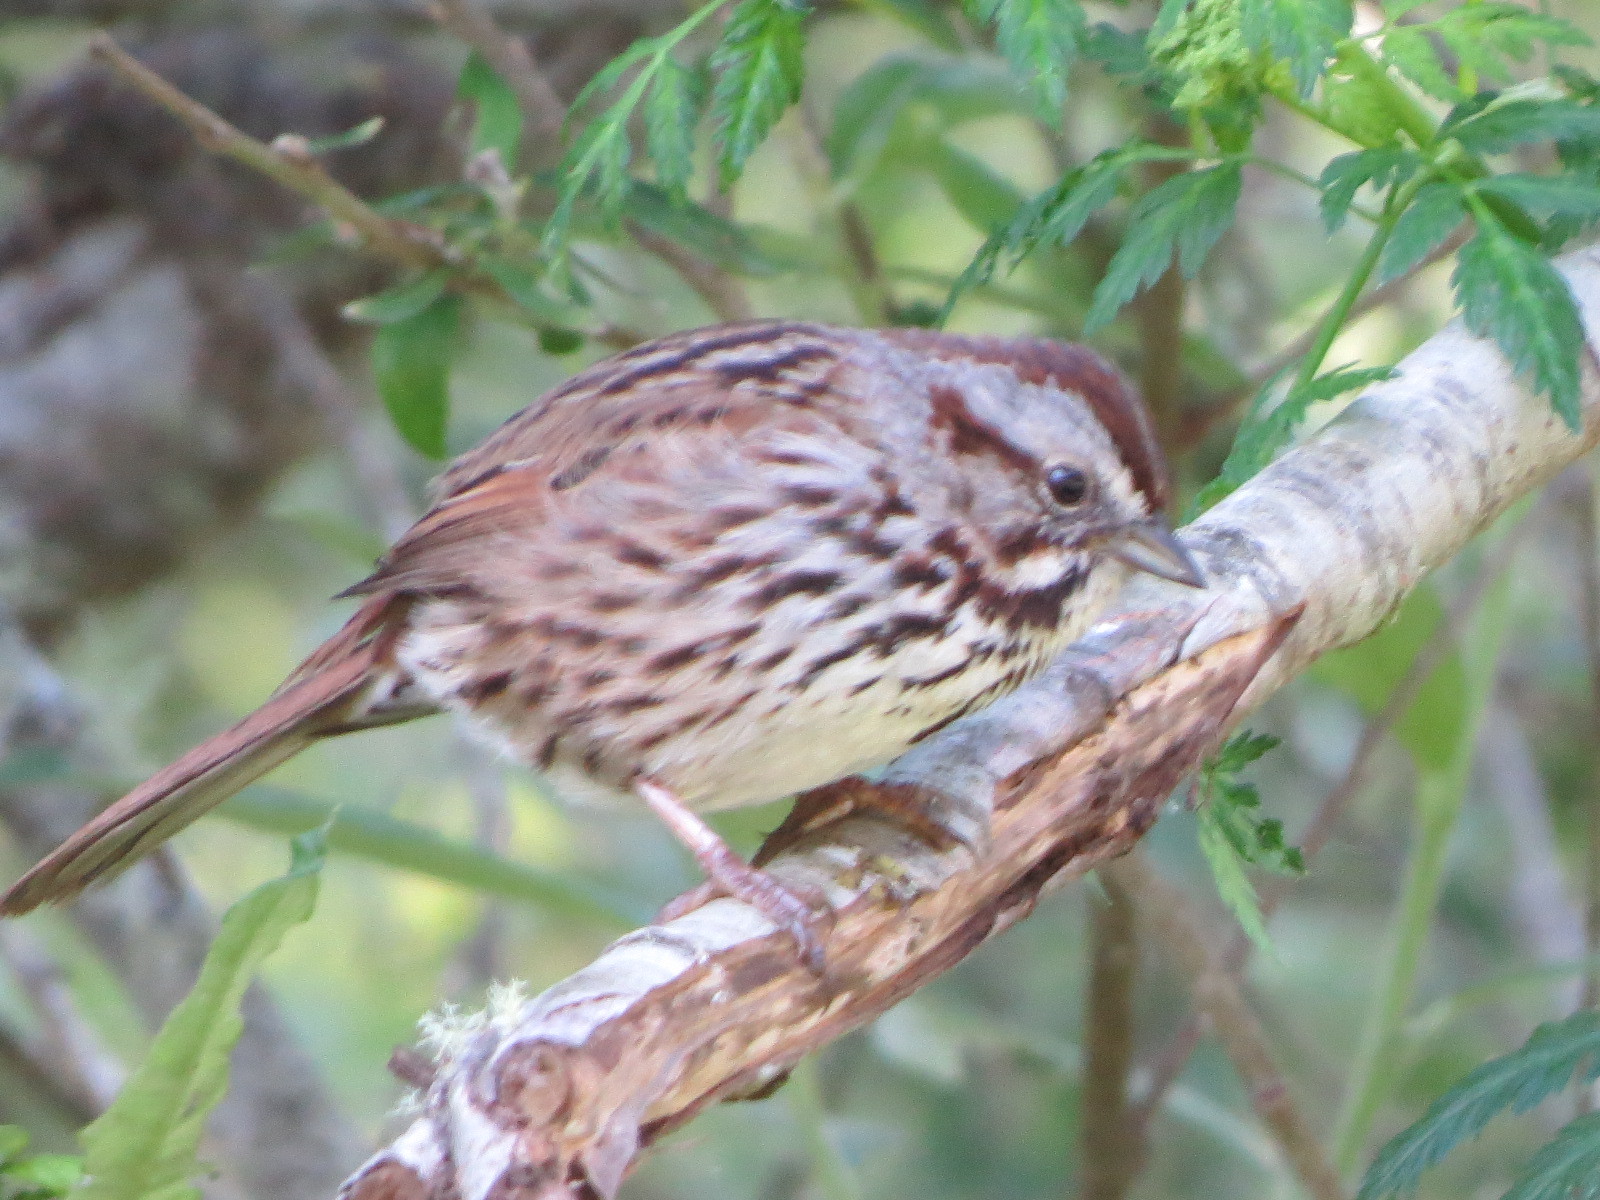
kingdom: Animalia
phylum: Chordata
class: Aves
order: Passeriformes
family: Passerellidae
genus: Melospiza
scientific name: Melospiza melodia
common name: Song sparrow
